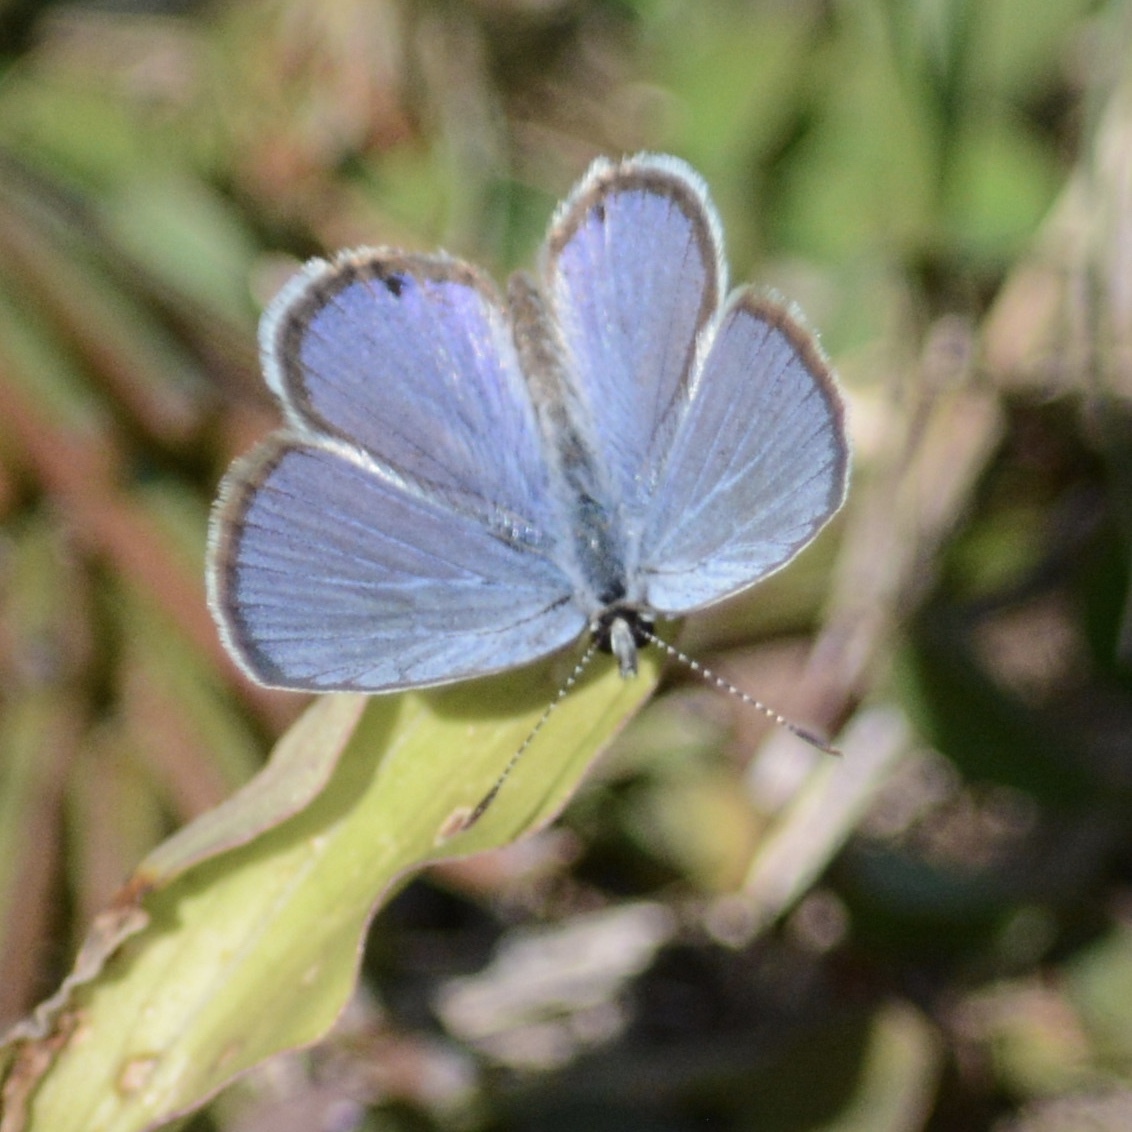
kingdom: Animalia
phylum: Arthropoda
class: Insecta
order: Lepidoptera
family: Lycaenidae
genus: Hemiargus
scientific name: Hemiargus ceraunus
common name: Ceraunus blue
